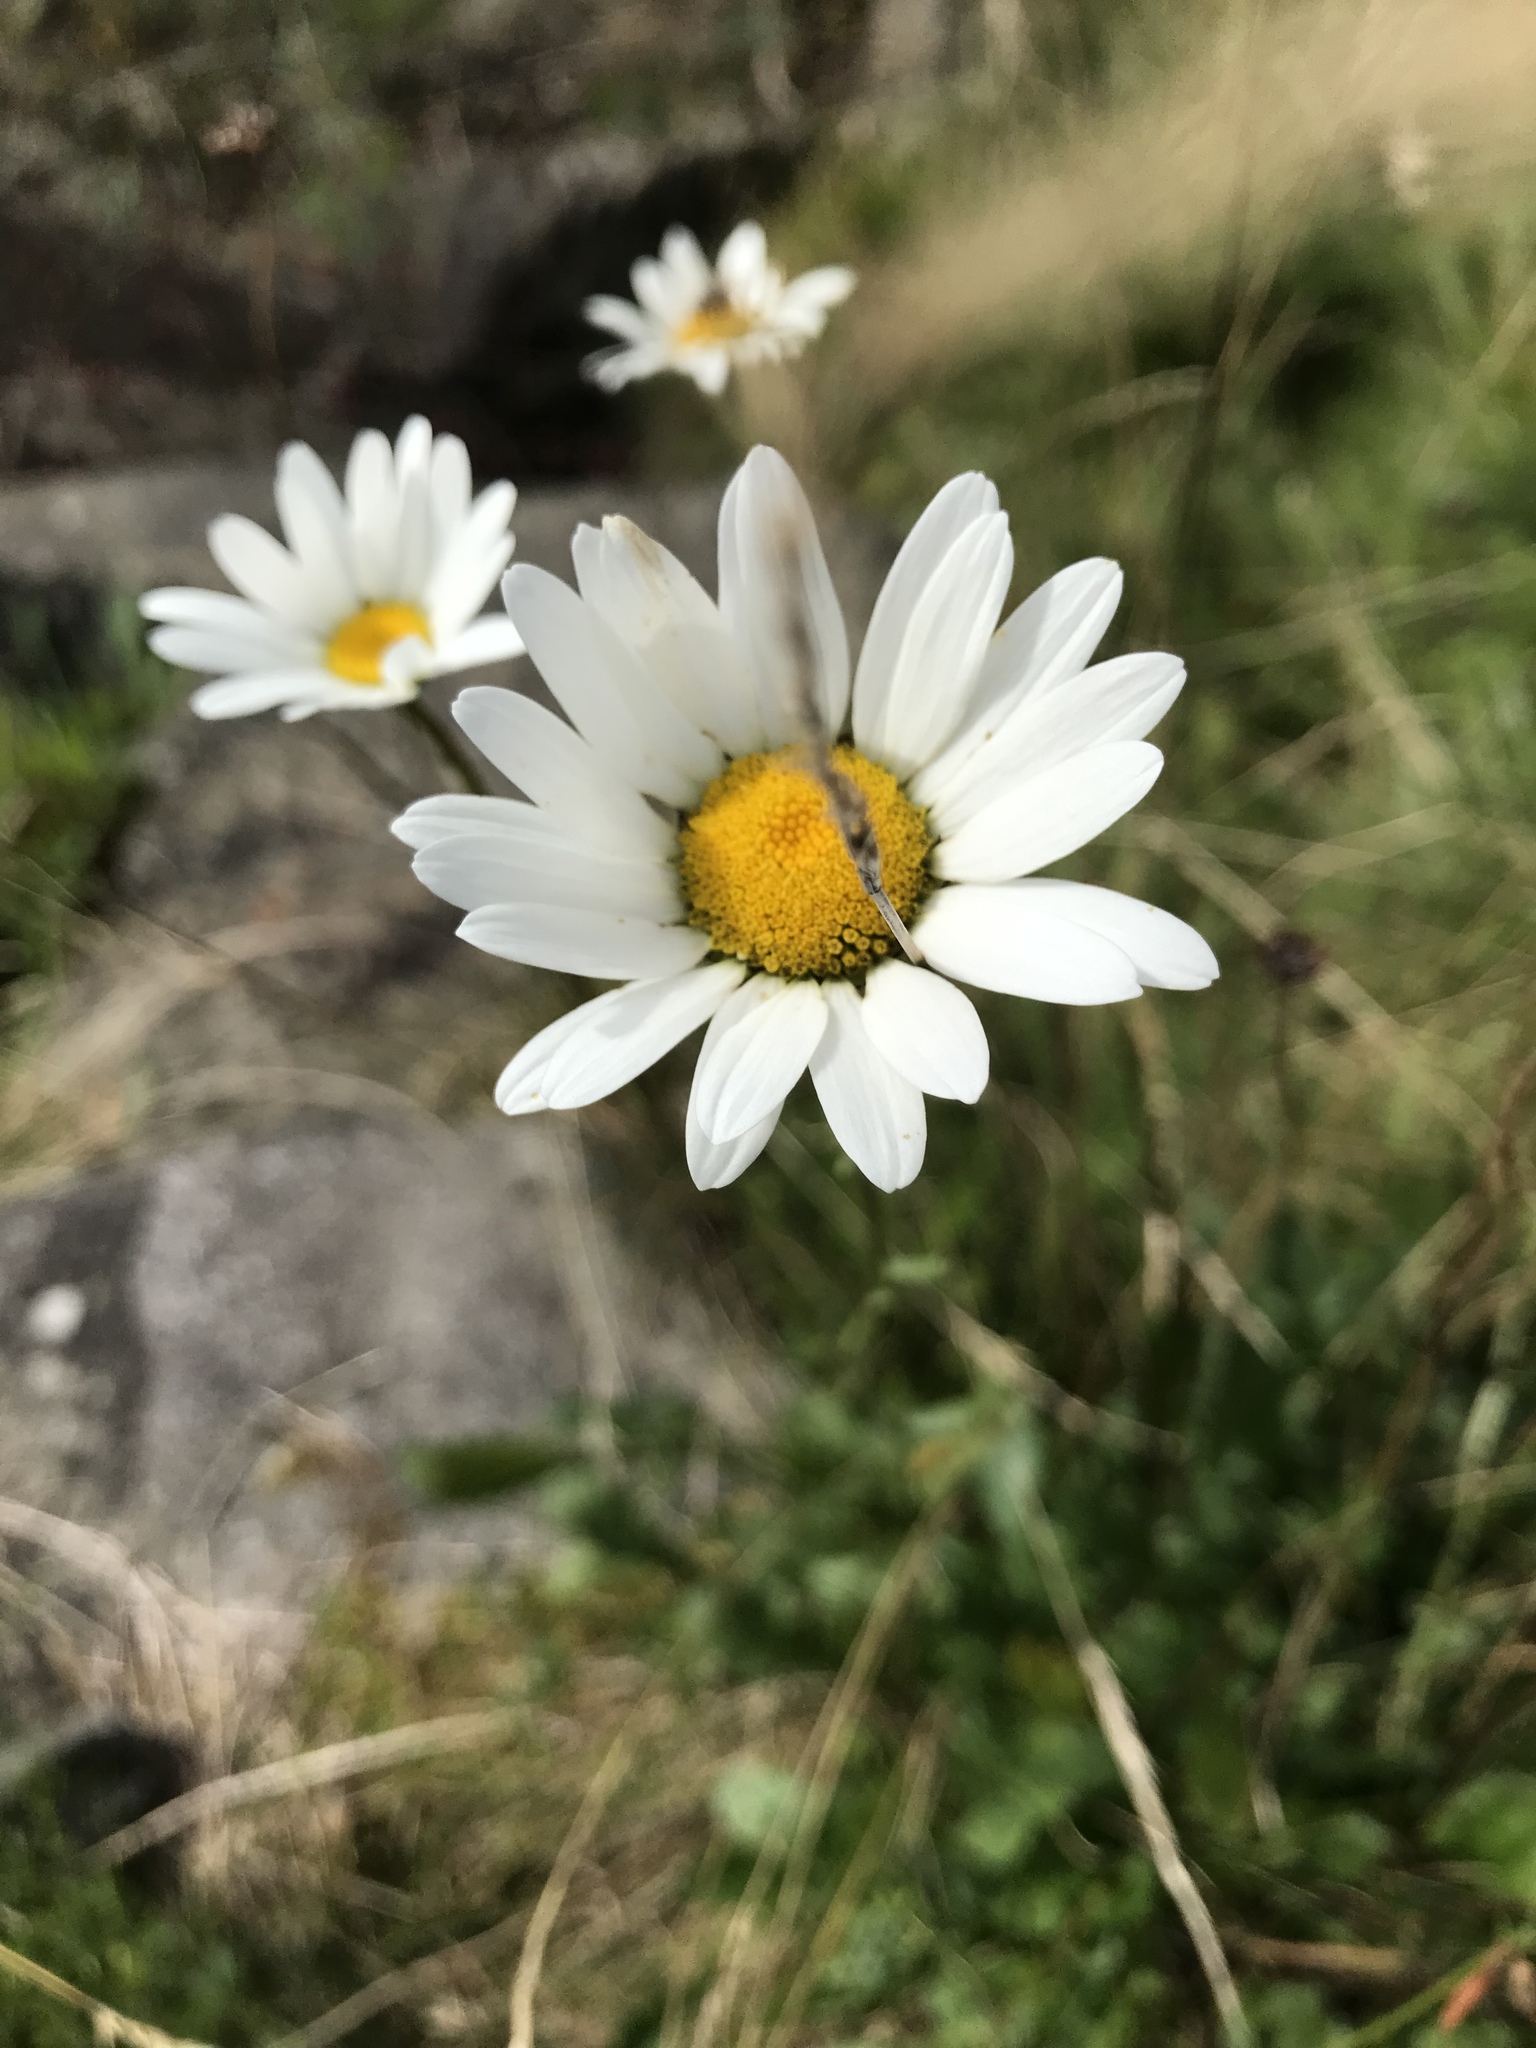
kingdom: Plantae
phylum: Tracheophyta
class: Magnoliopsida
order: Asterales
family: Asteraceae
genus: Leucanthemum
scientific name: Leucanthemum vulgare
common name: Oxeye daisy
